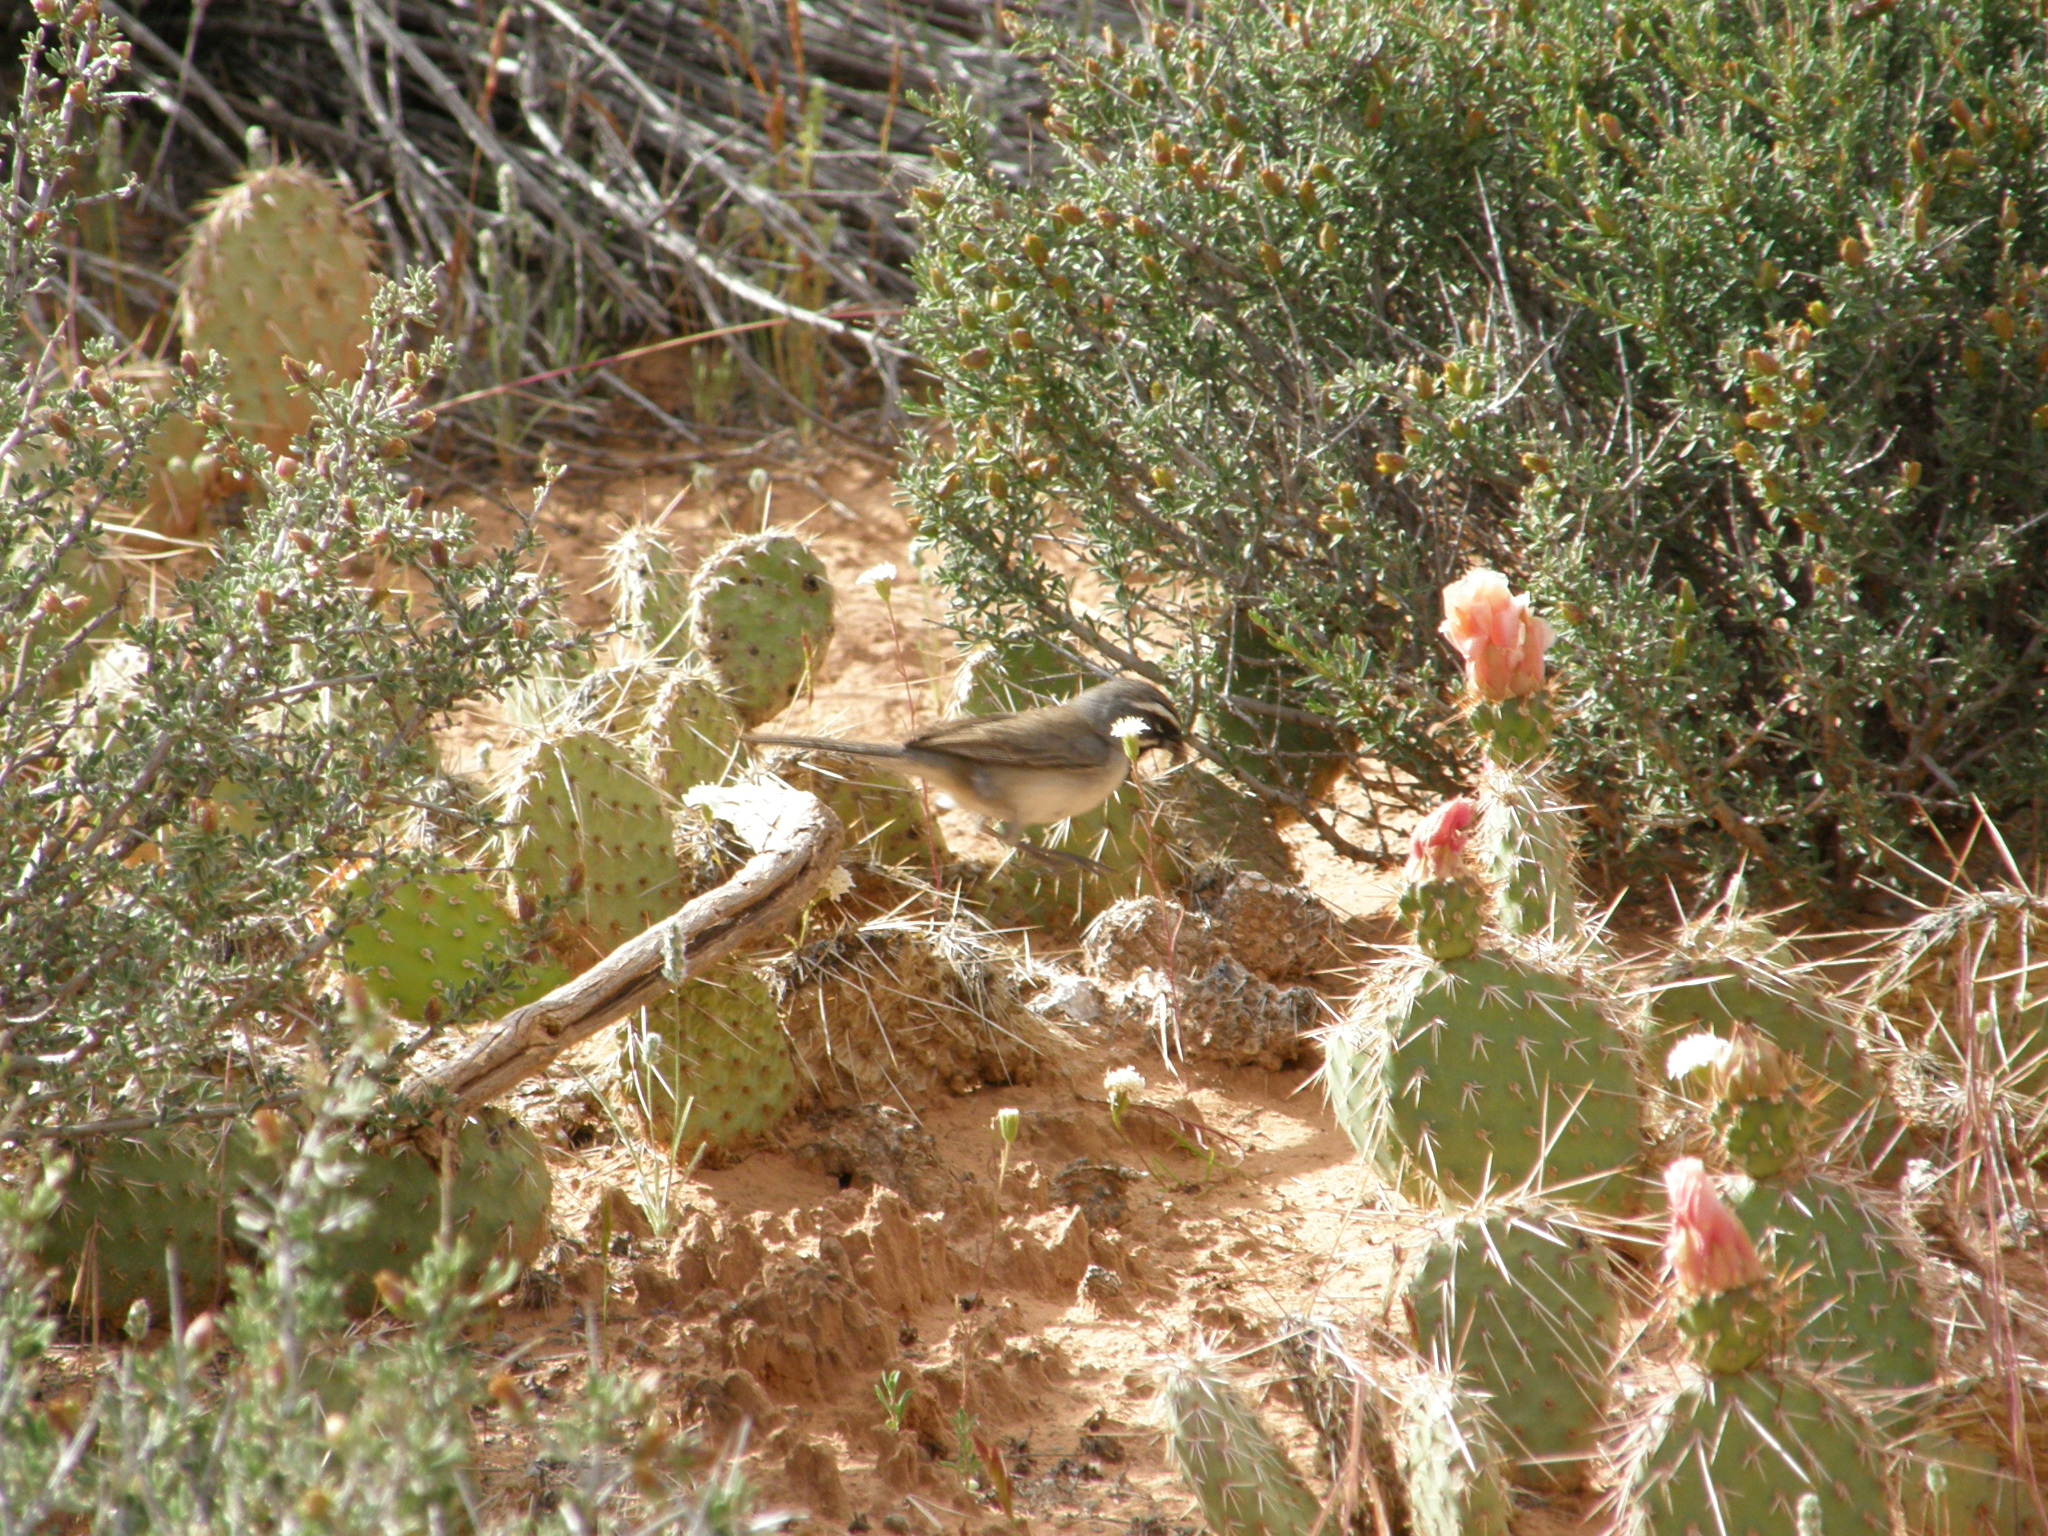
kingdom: Animalia
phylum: Chordata
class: Aves
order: Passeriformes
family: Passerellidae
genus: Amphispiza
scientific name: Amphispiza bilineata
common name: Black-throated sparrow
